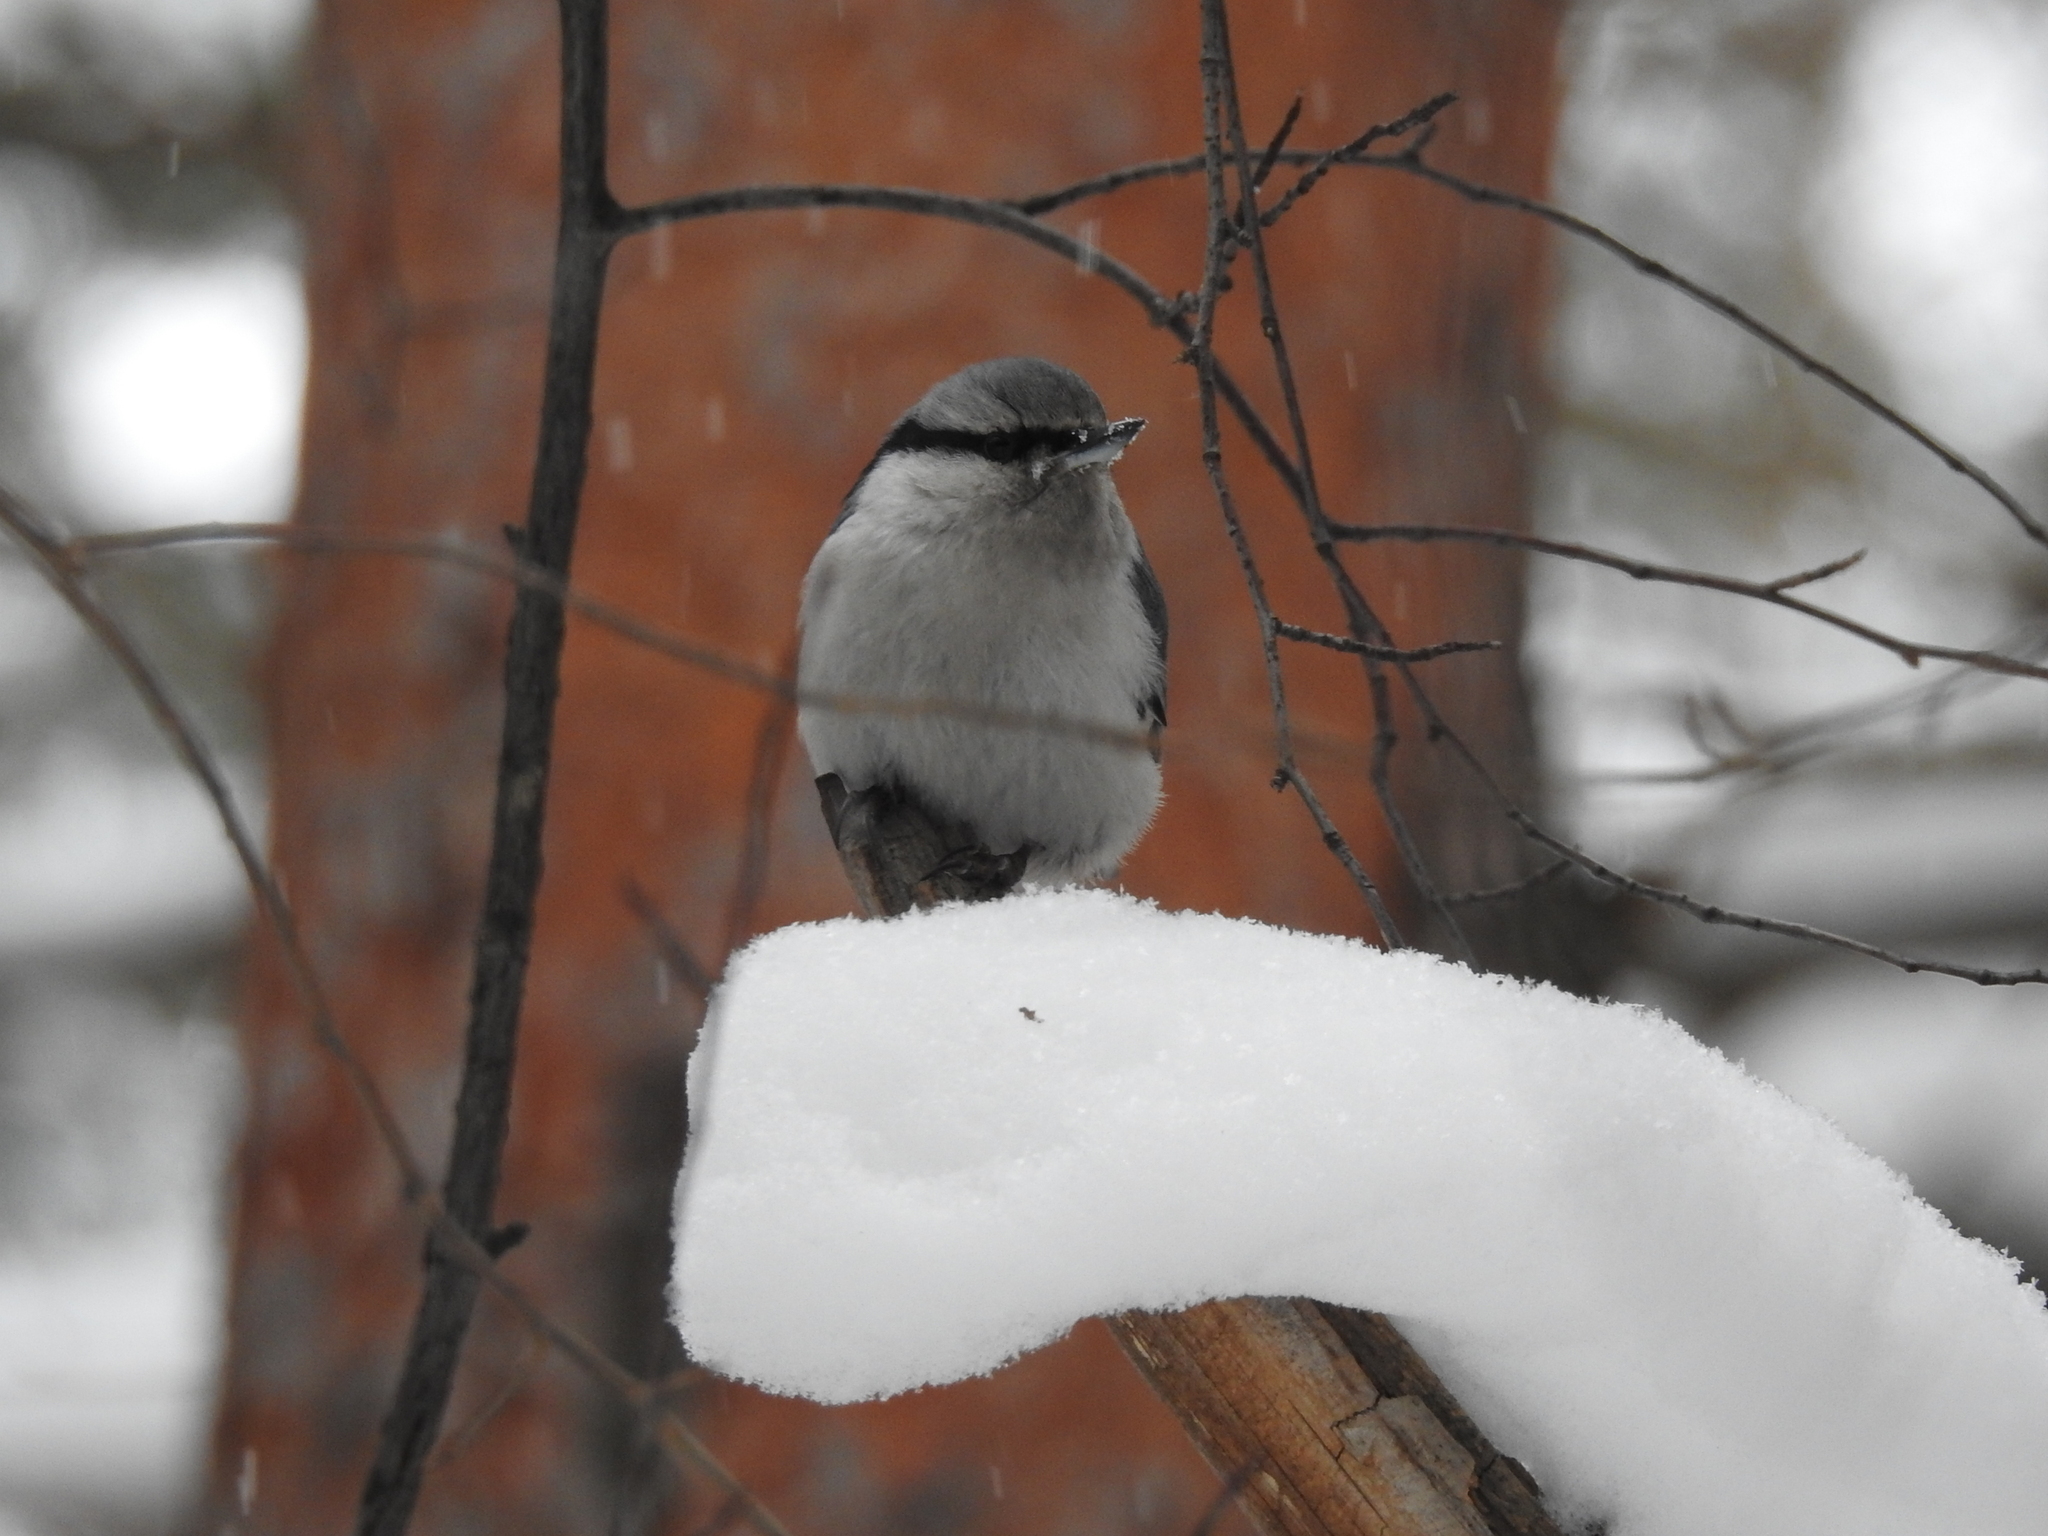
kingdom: Animalia
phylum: Chordata
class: Aves
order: Passeriformes
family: Sittidae
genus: Sitta
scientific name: Sitta europaea
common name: Eurasian nuthatch
